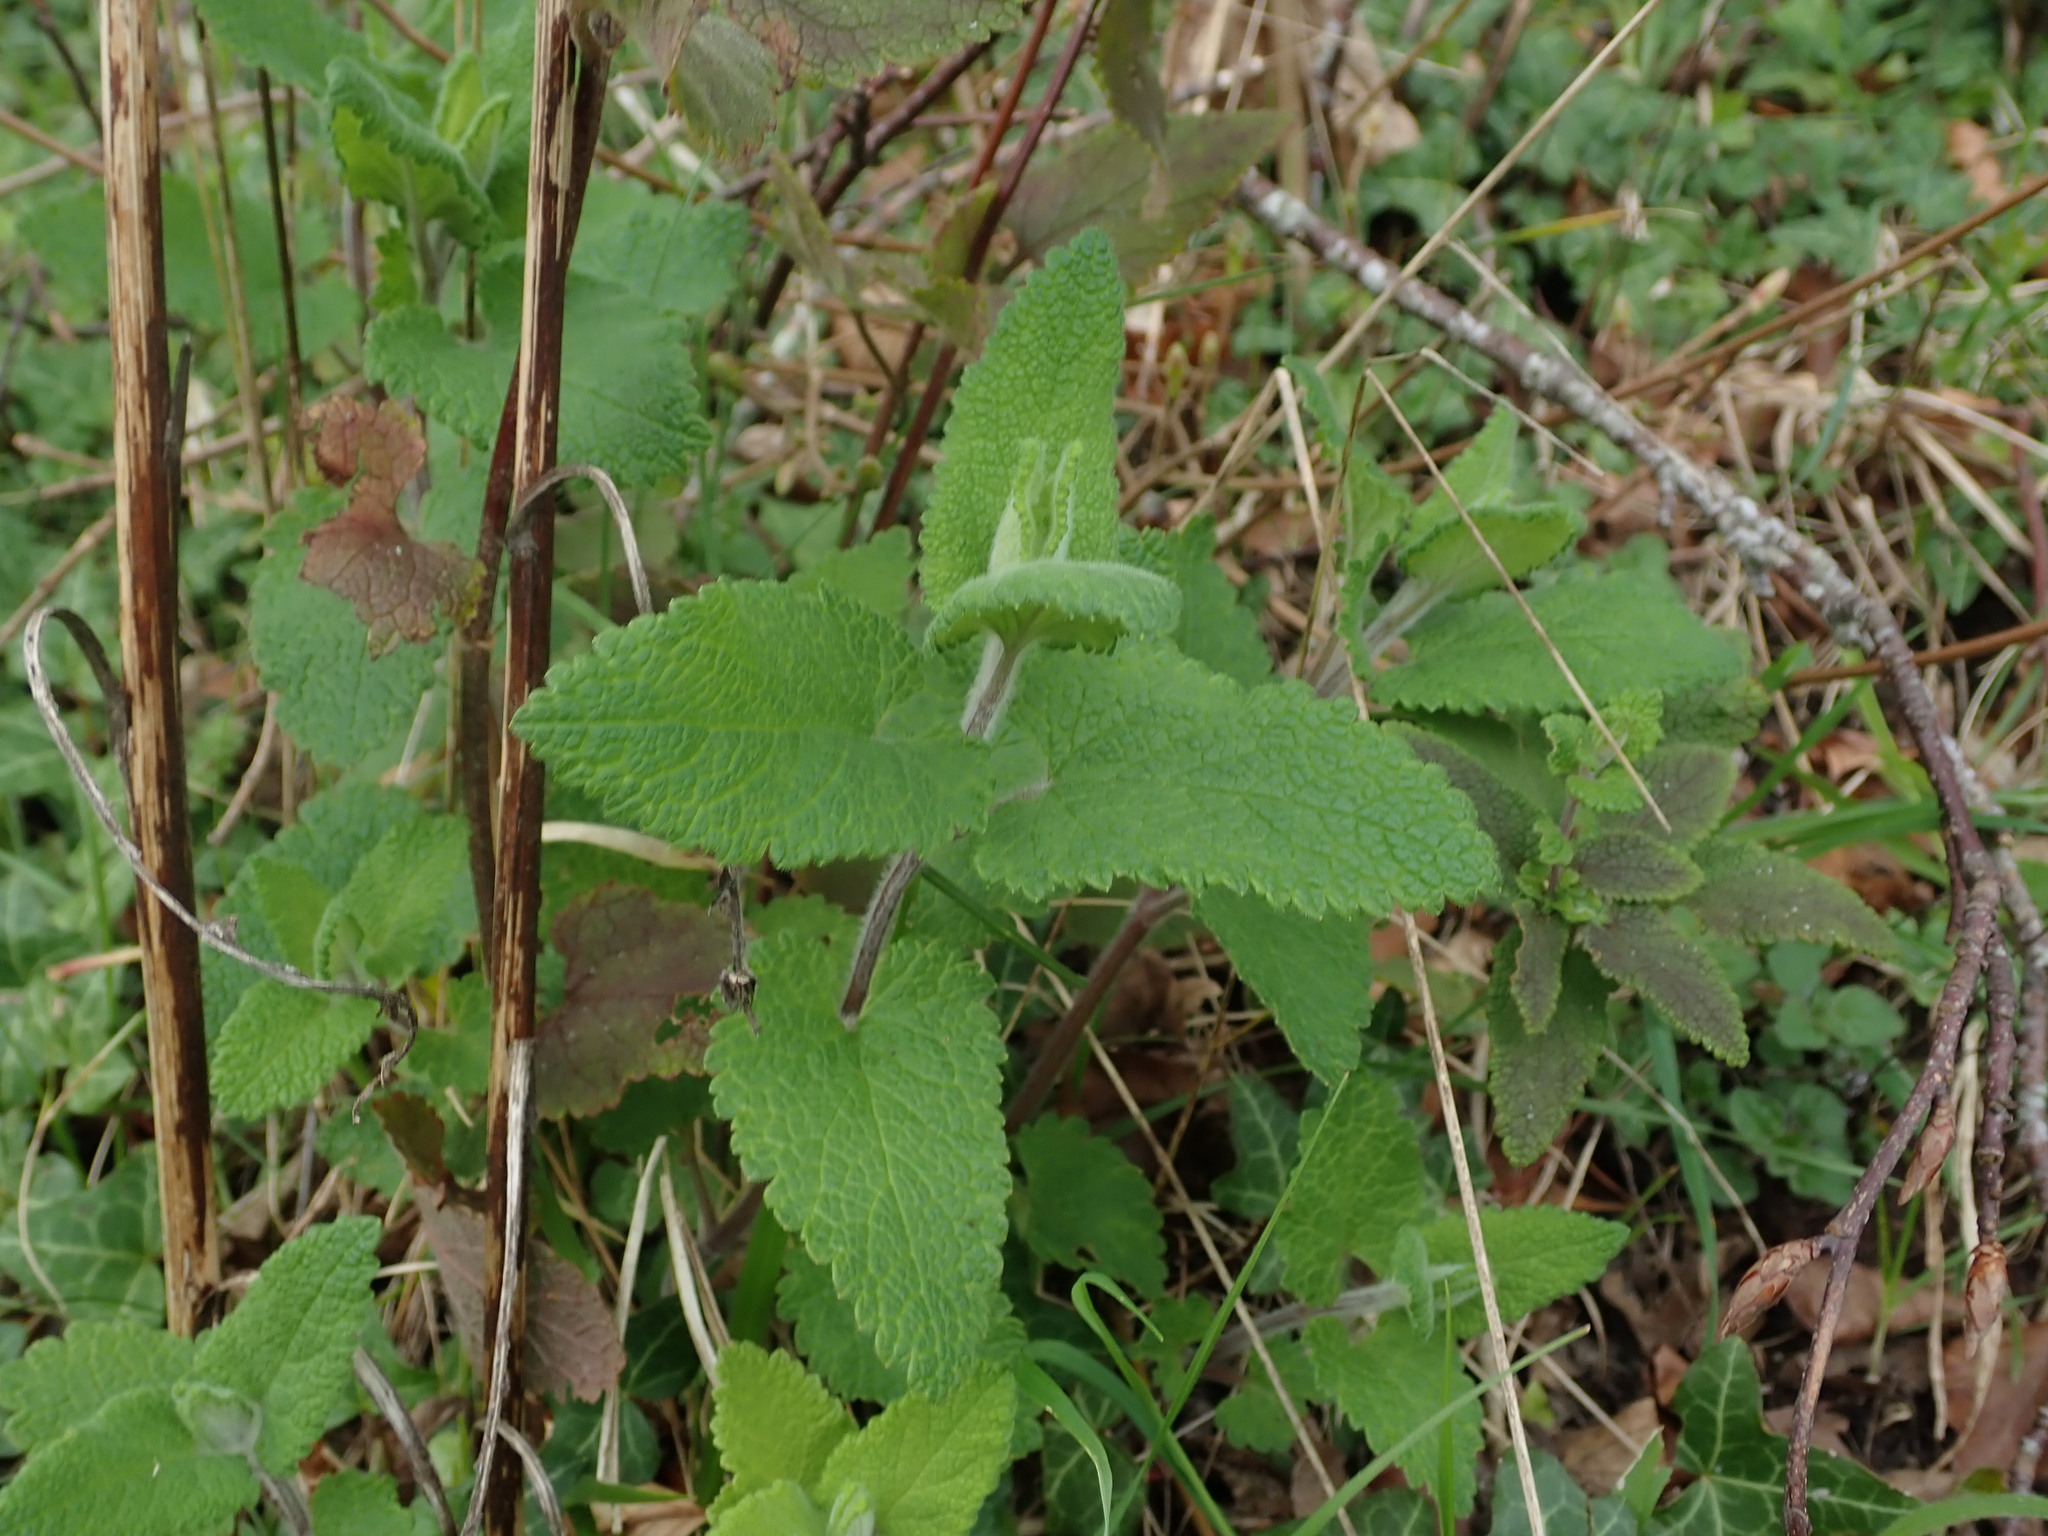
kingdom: Plantae
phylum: Tracheophyta
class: Magnoliopsida
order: Lamiales
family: Lamiaceae
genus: Teucrium
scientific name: Teucrium scorodonia
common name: Woodland germander
